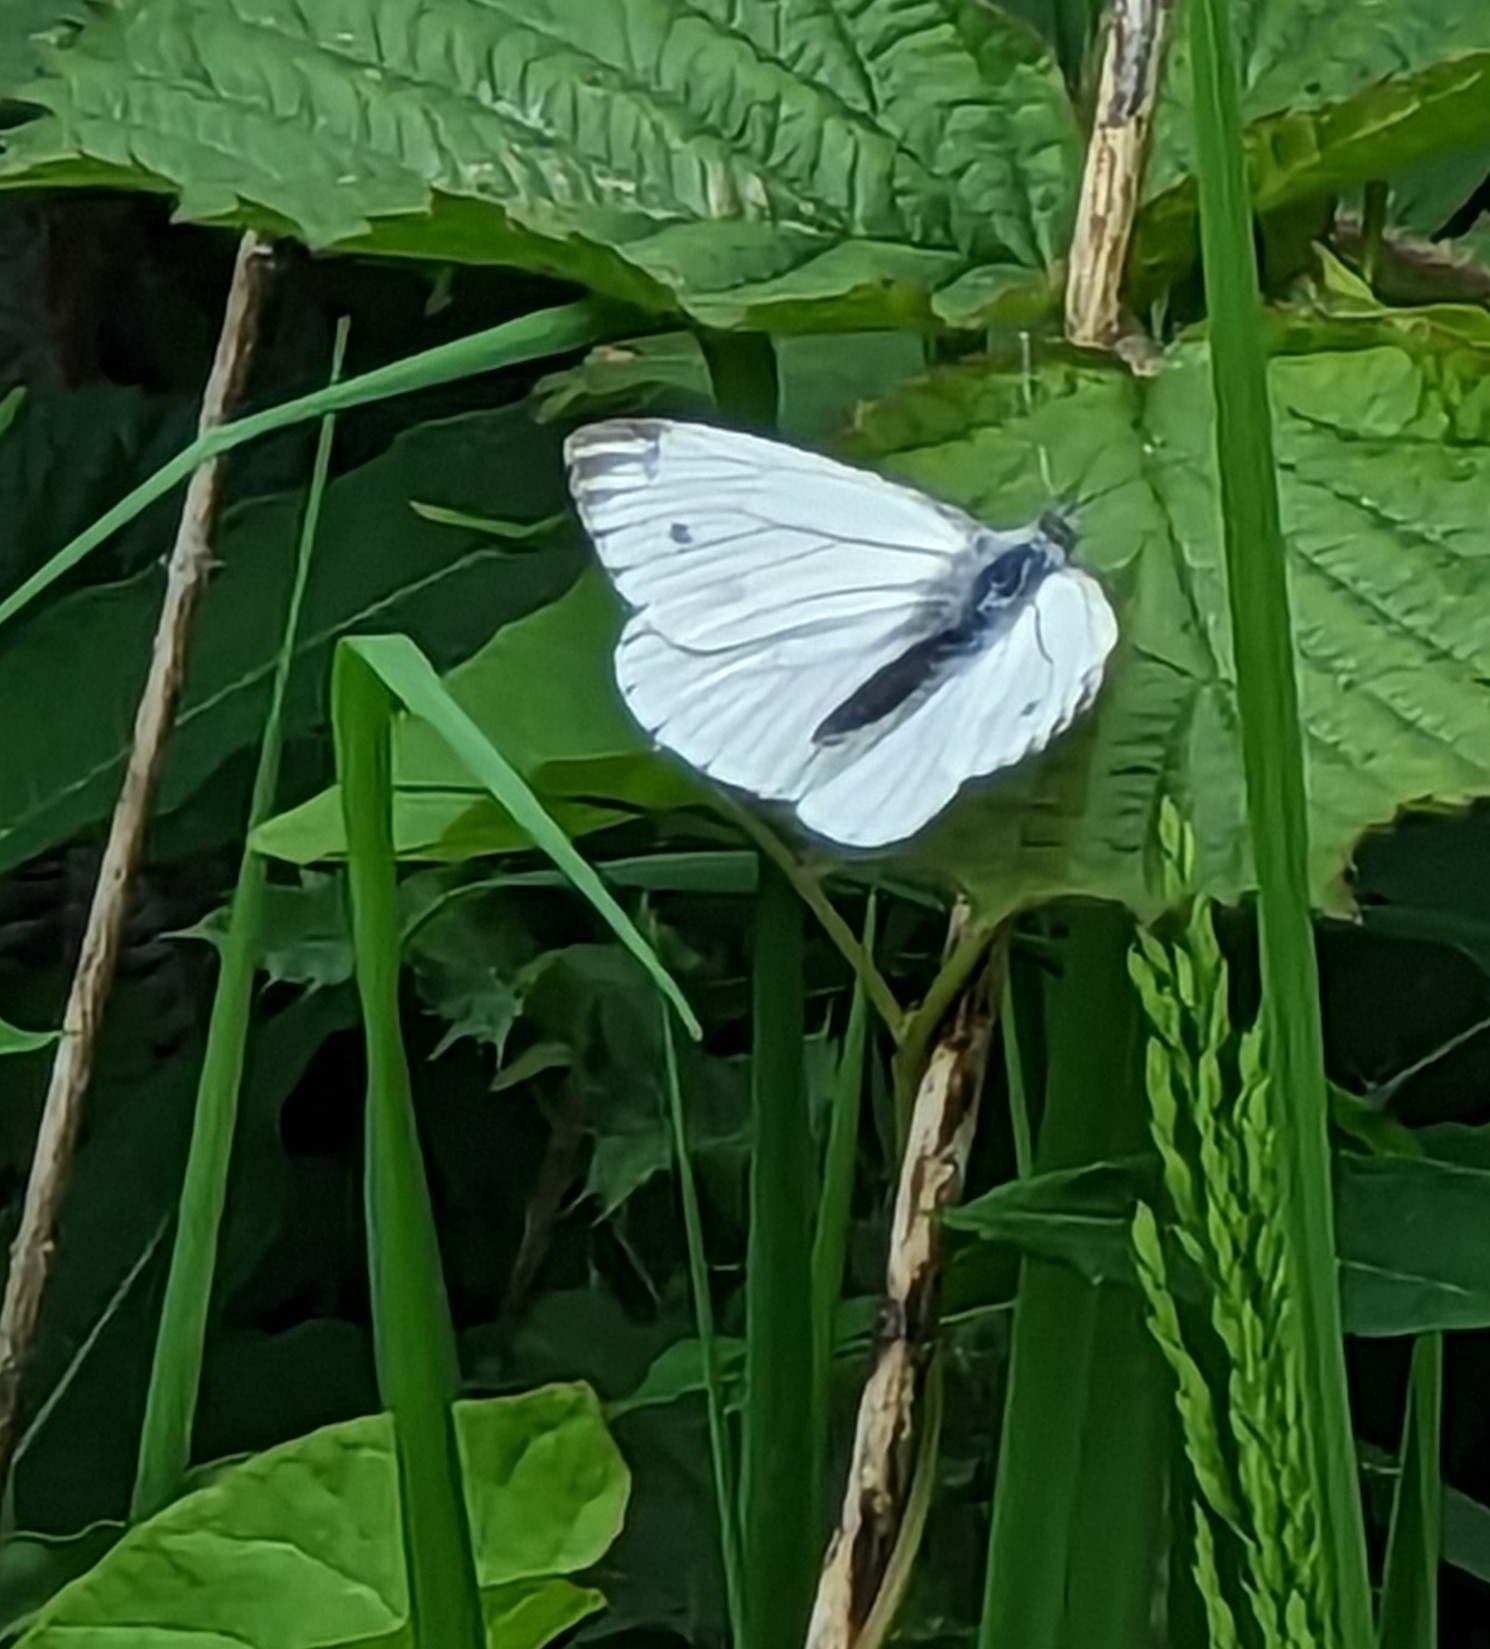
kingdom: Animalia
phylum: Arthropoda
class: Insecta
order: Lepidoptera
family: Pieridae
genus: Pieris
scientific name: Pieris napi
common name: Green-veined white
